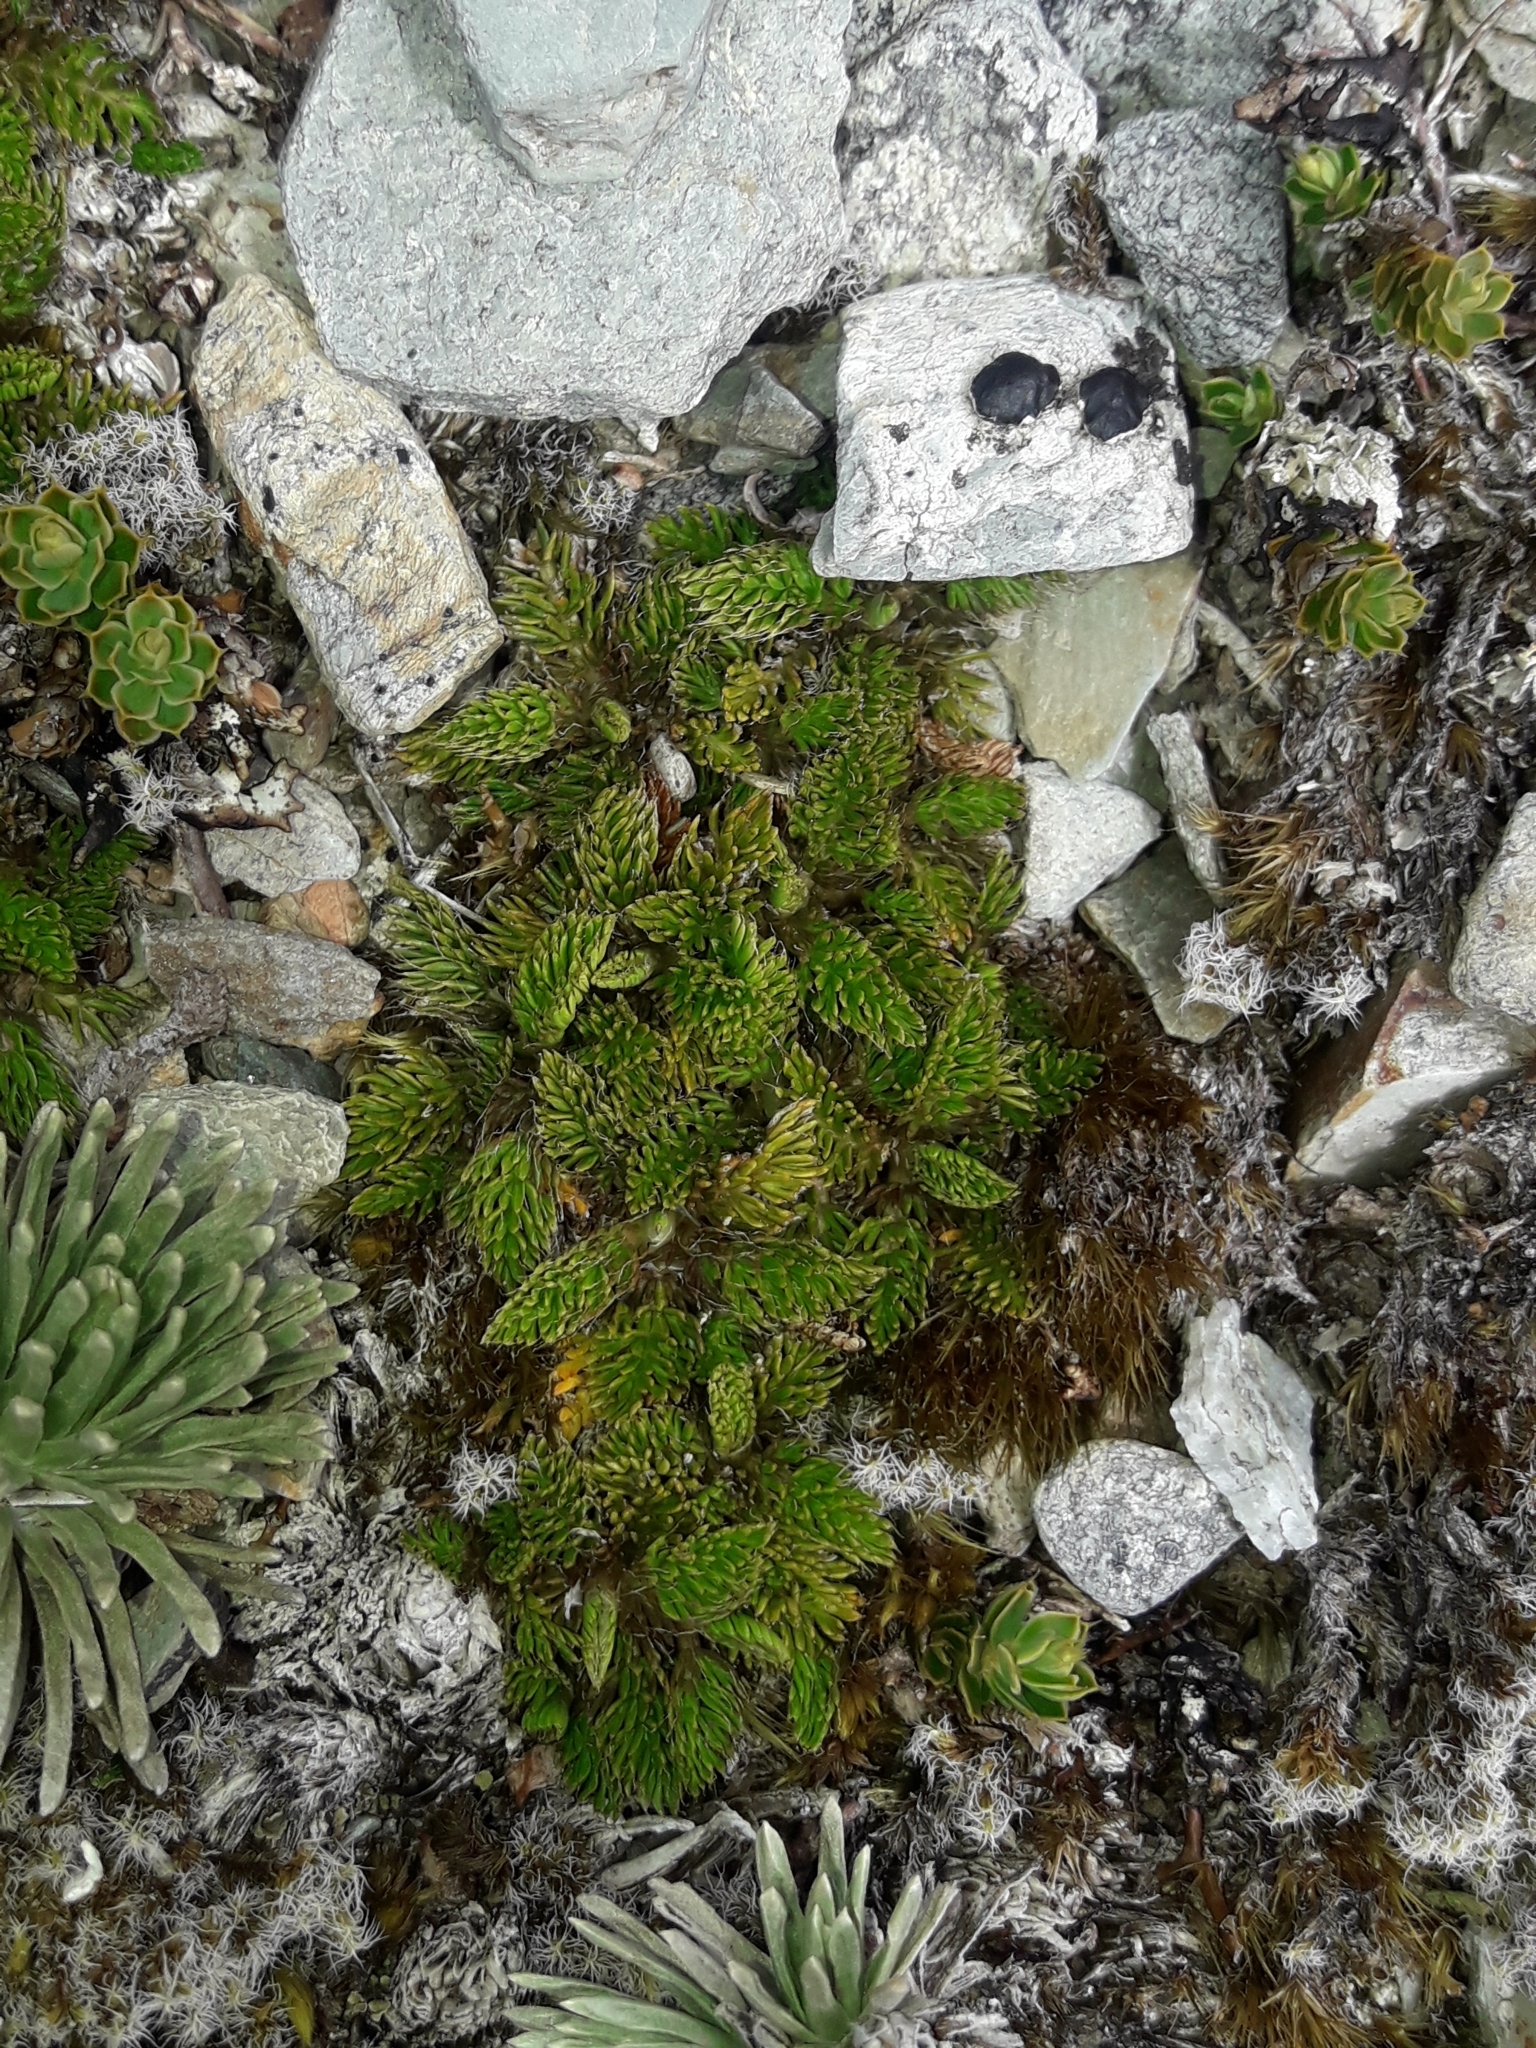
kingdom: Plantae
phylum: Tracheophyta
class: Magnoliopsida
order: Apiales
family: Apiaceae
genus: Anisotome
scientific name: Anisotome imbricata
